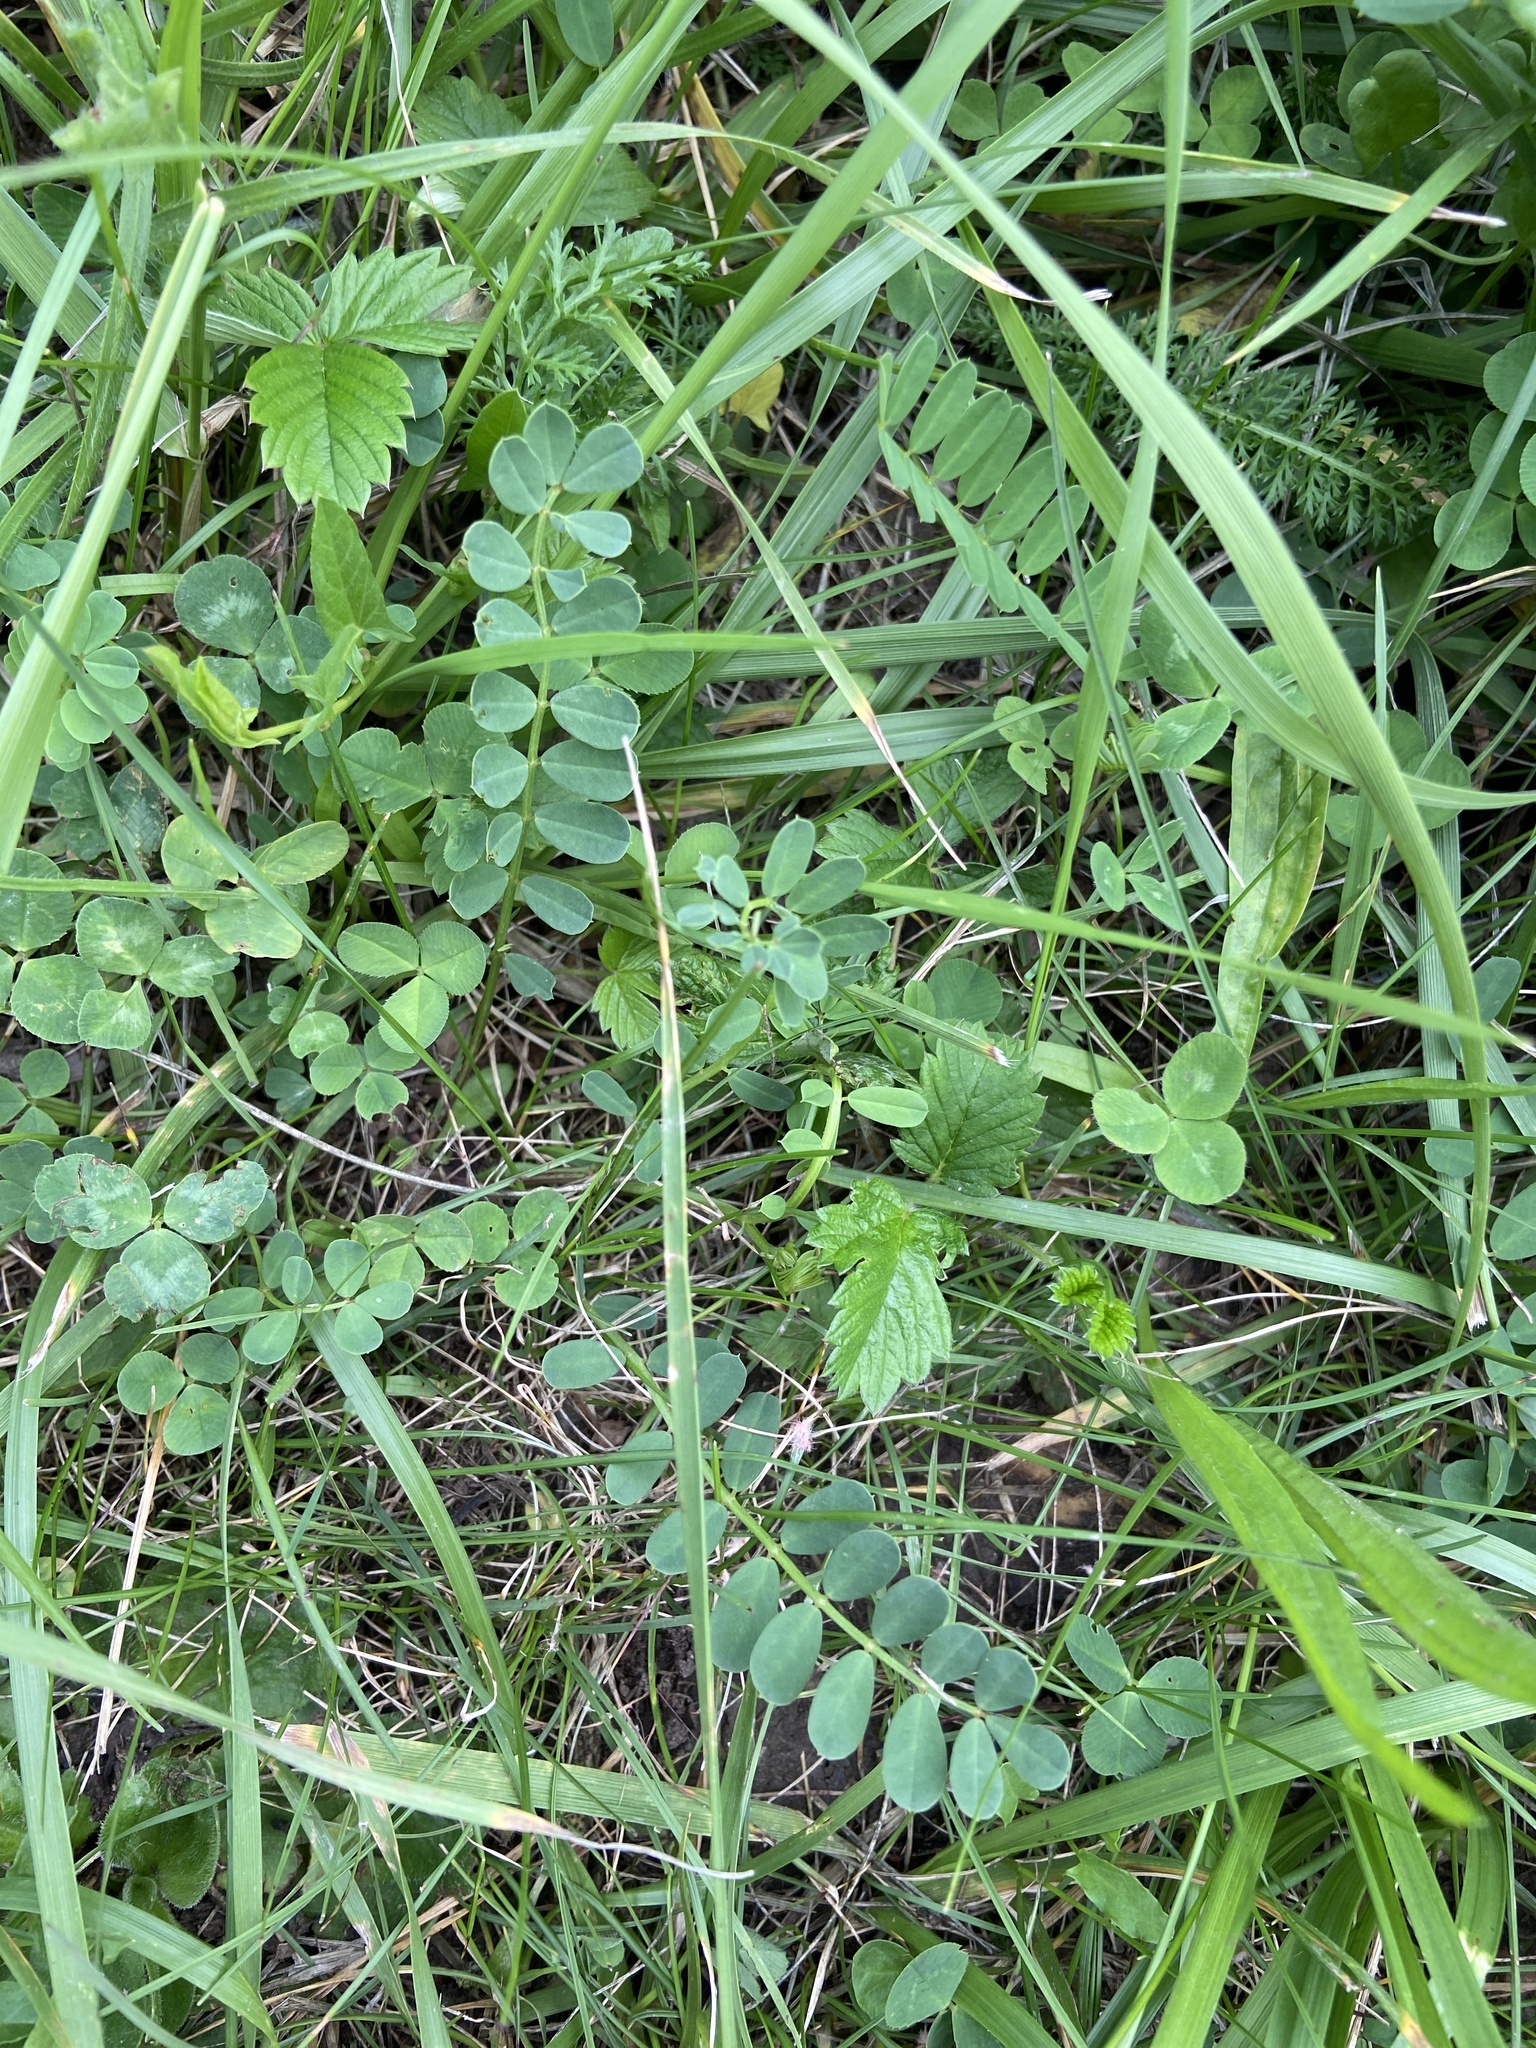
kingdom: Plantae
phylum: Tracheophyta
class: Magnoliopsida
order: Fabales
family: Fabaceae
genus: Coronilla
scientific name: Coronilla varia
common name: Crownvetch
